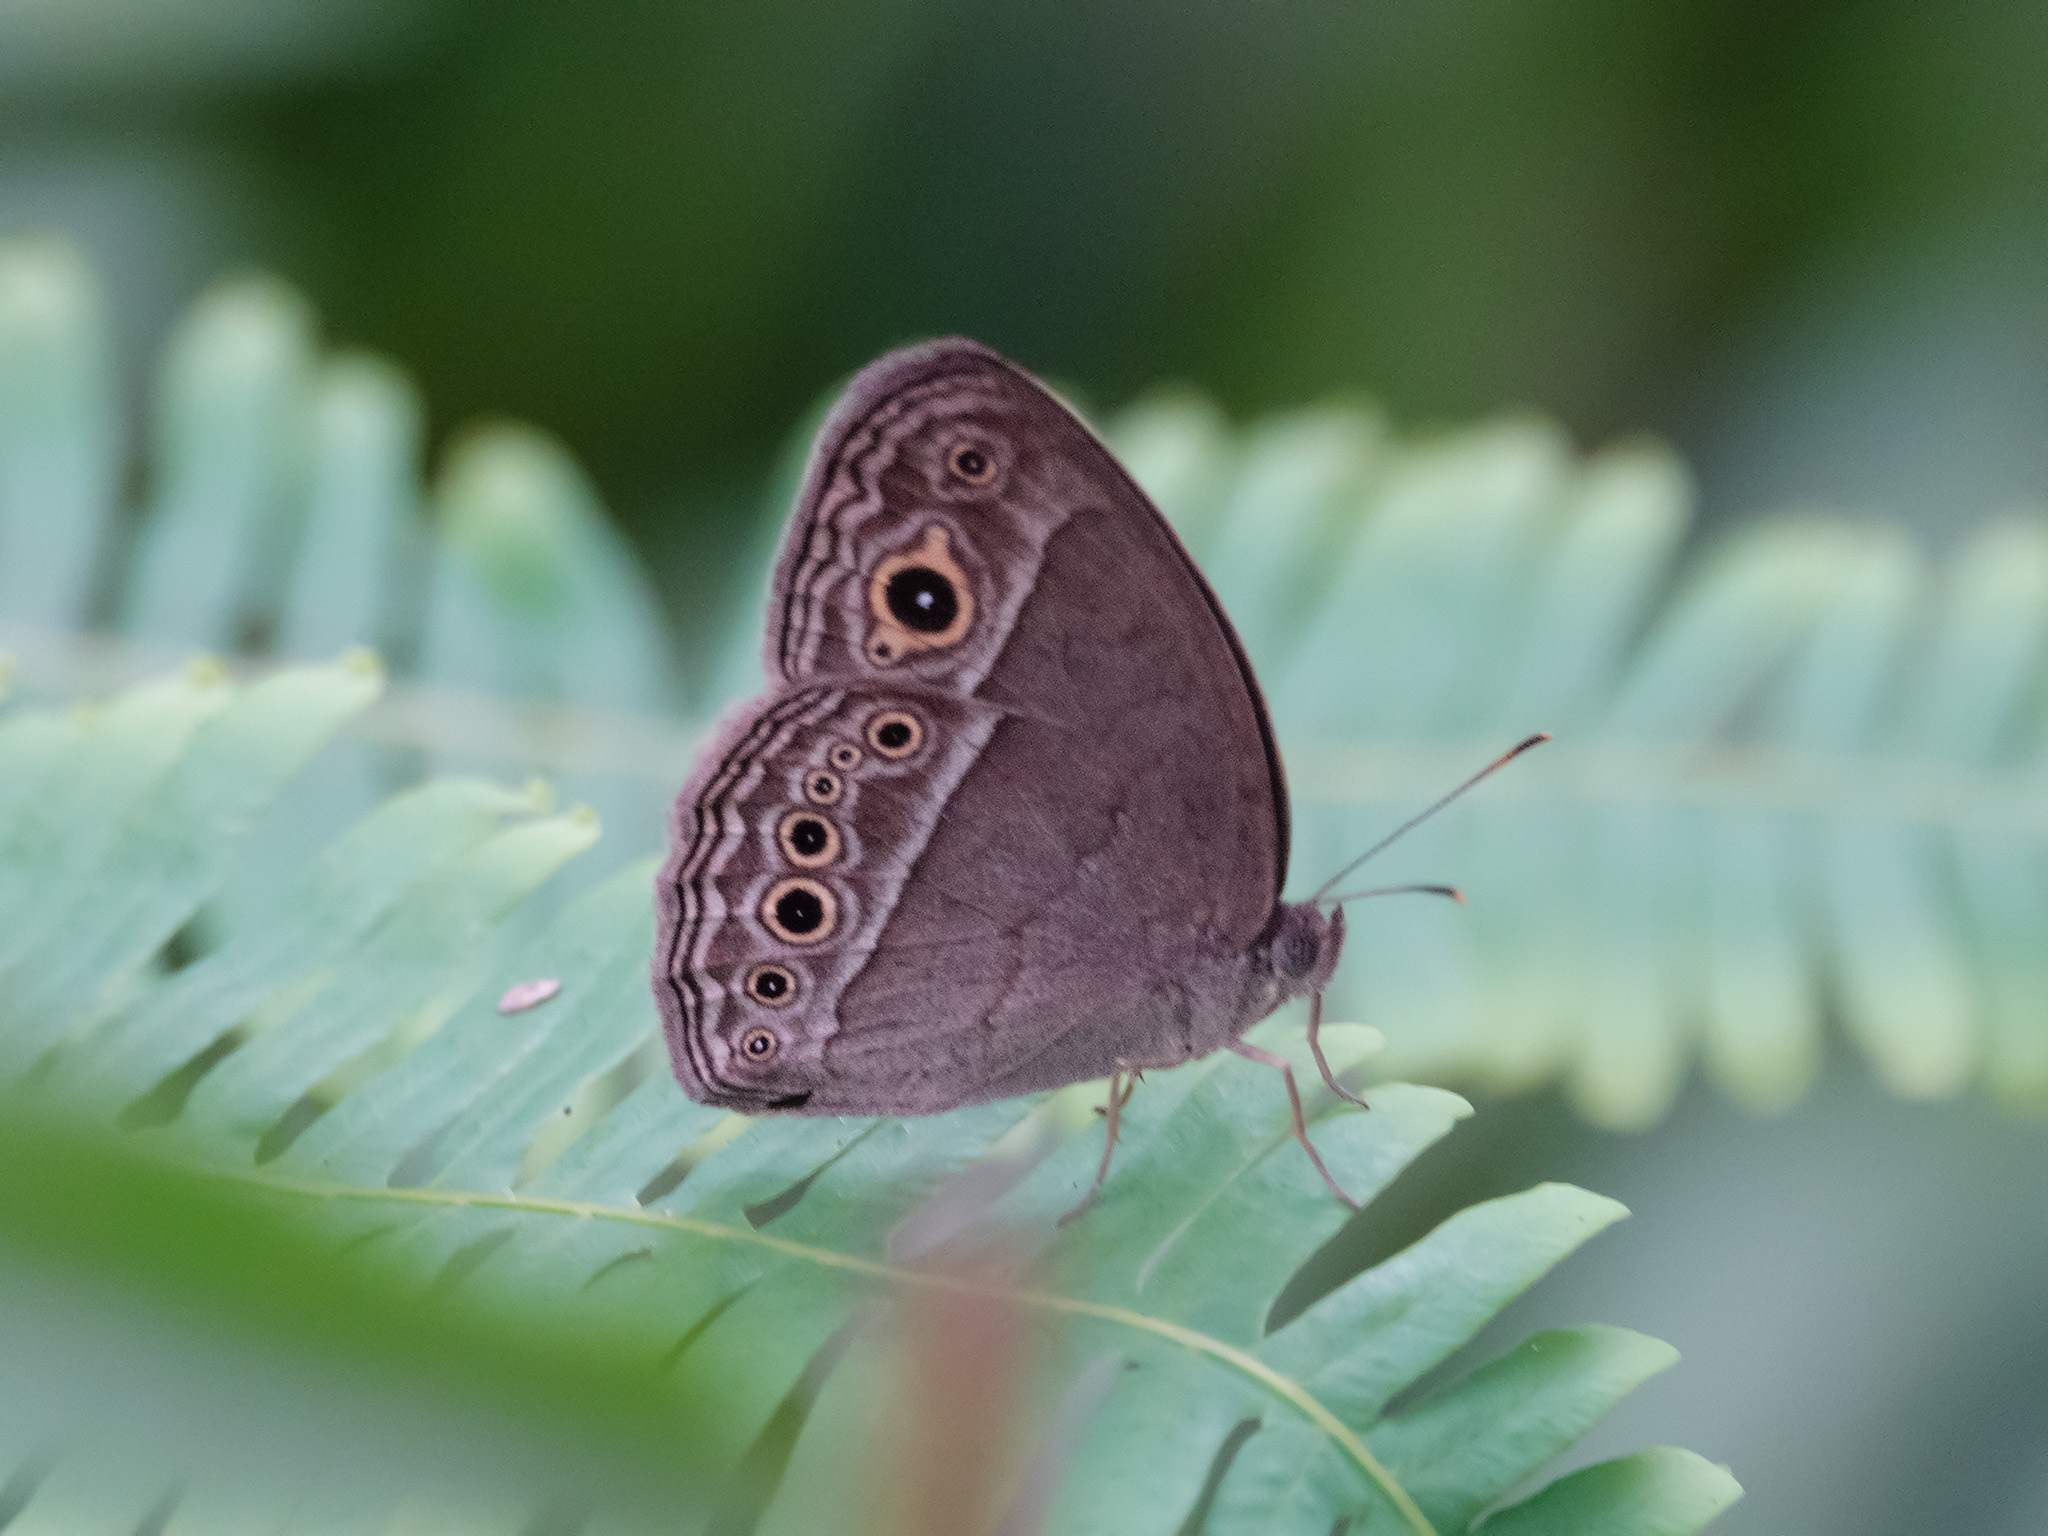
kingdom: Animalia
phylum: Arthropoda
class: Insecta
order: Lepidoptera
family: Nymphalidae
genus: Mycalesis
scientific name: Mycalesis perseoides
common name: Burmese bushbrown
